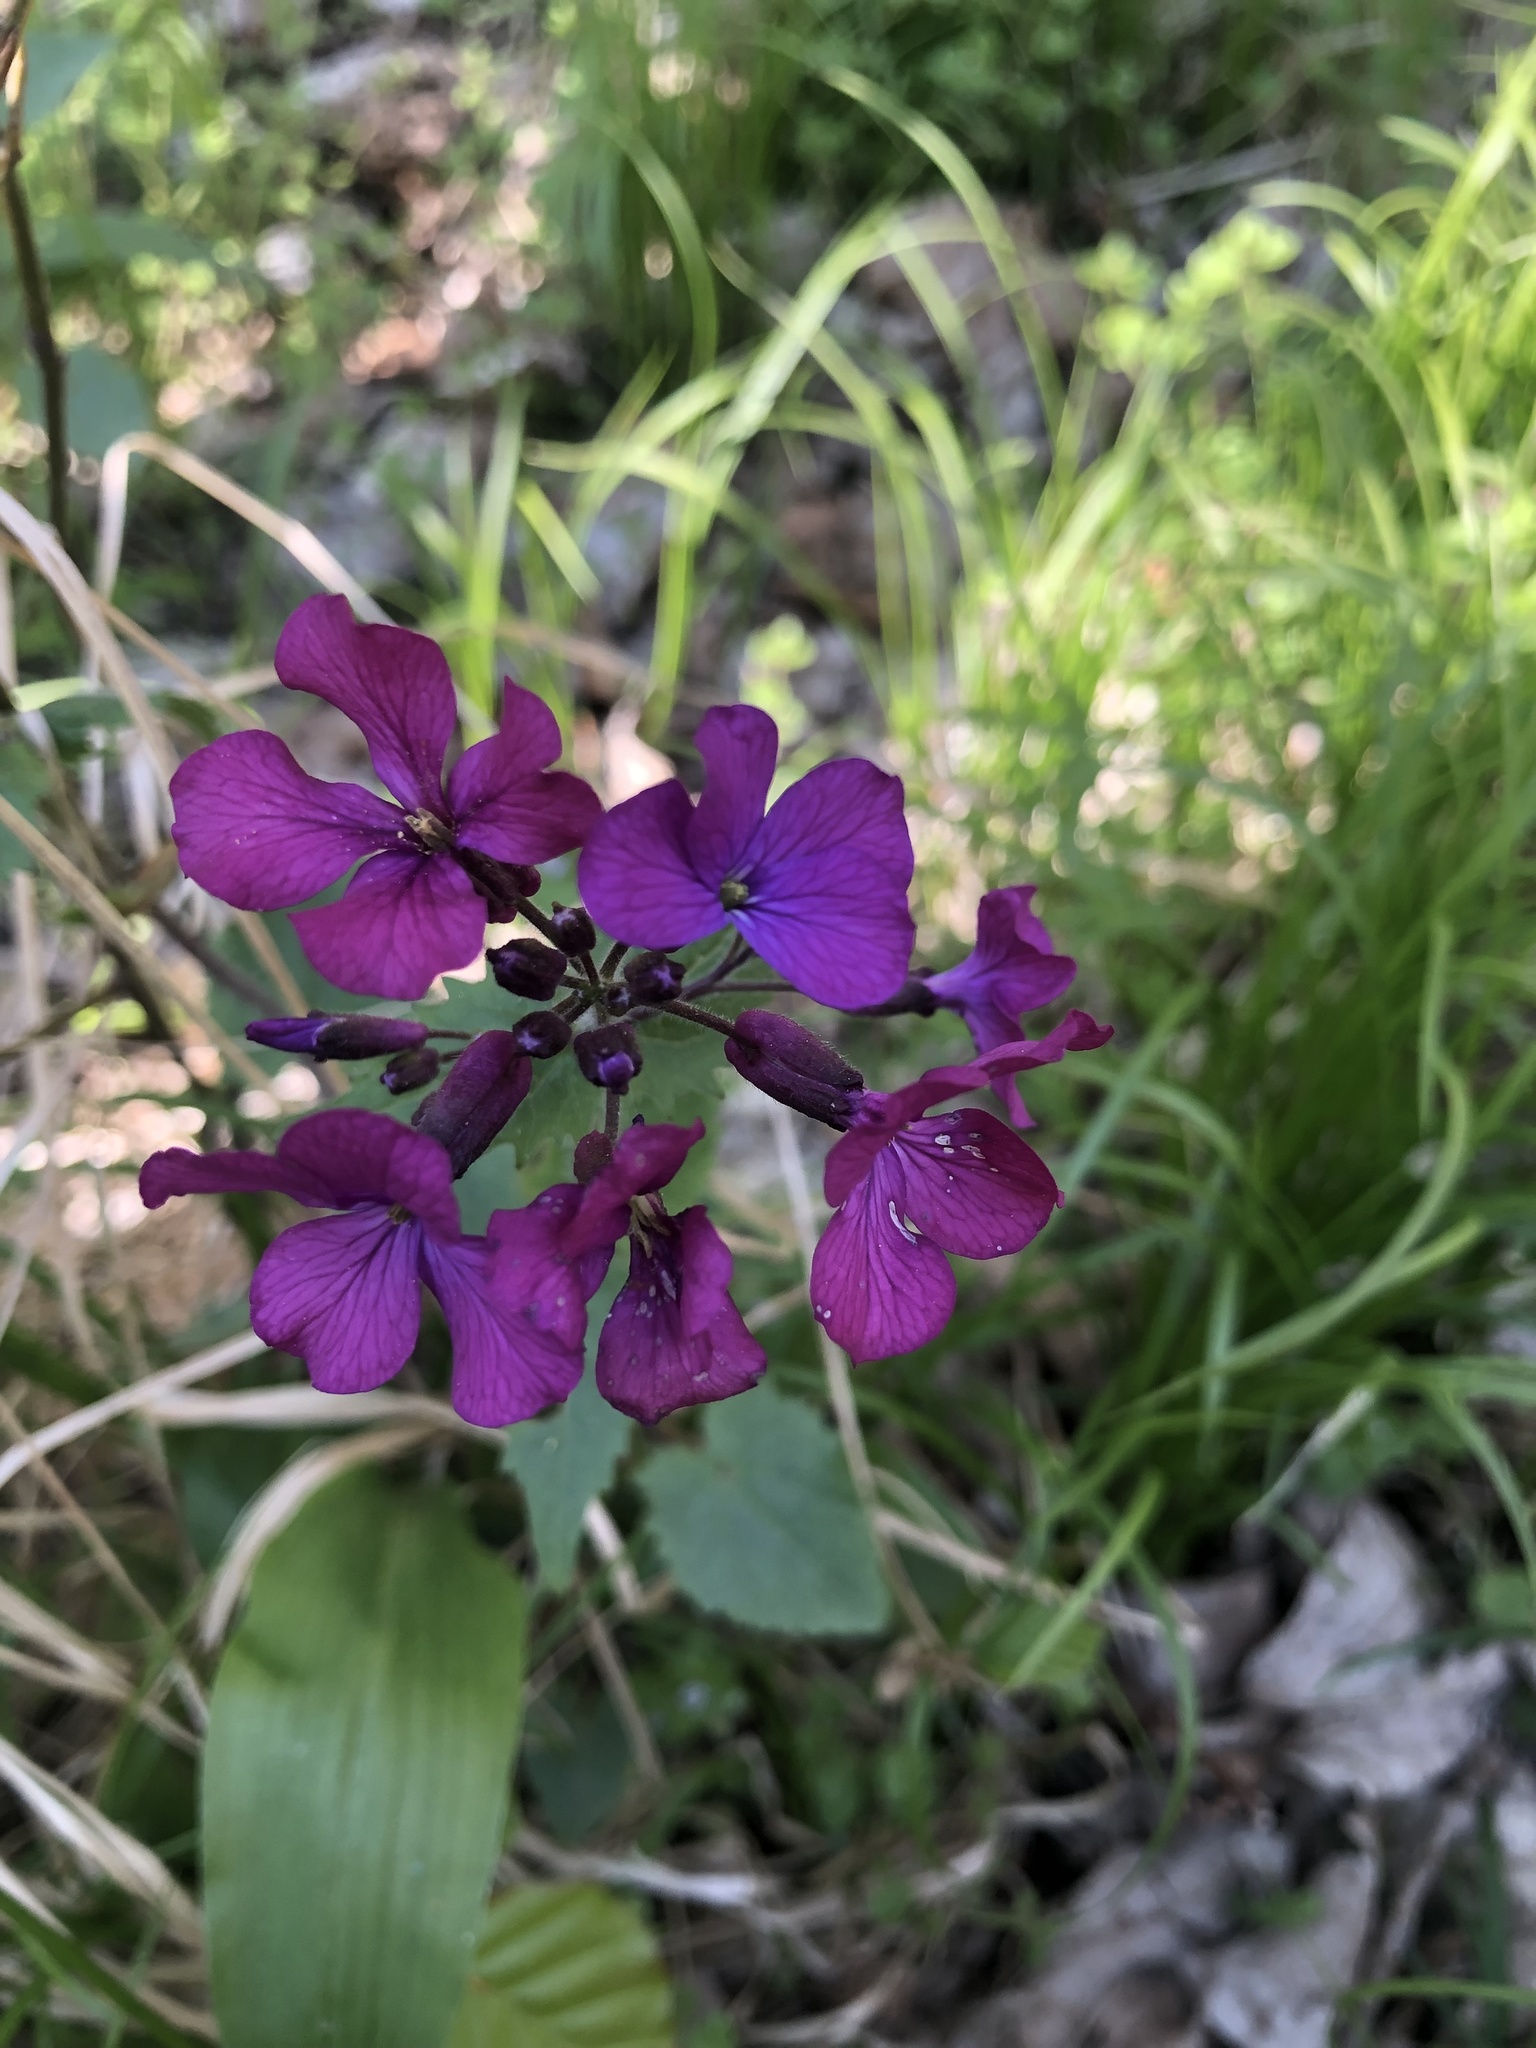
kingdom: Plantae
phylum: Tracheophyta
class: Magnoliopsida
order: Brassicales
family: Brassicaceae
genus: Lunaria
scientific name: Lunaria annua
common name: Honesty
